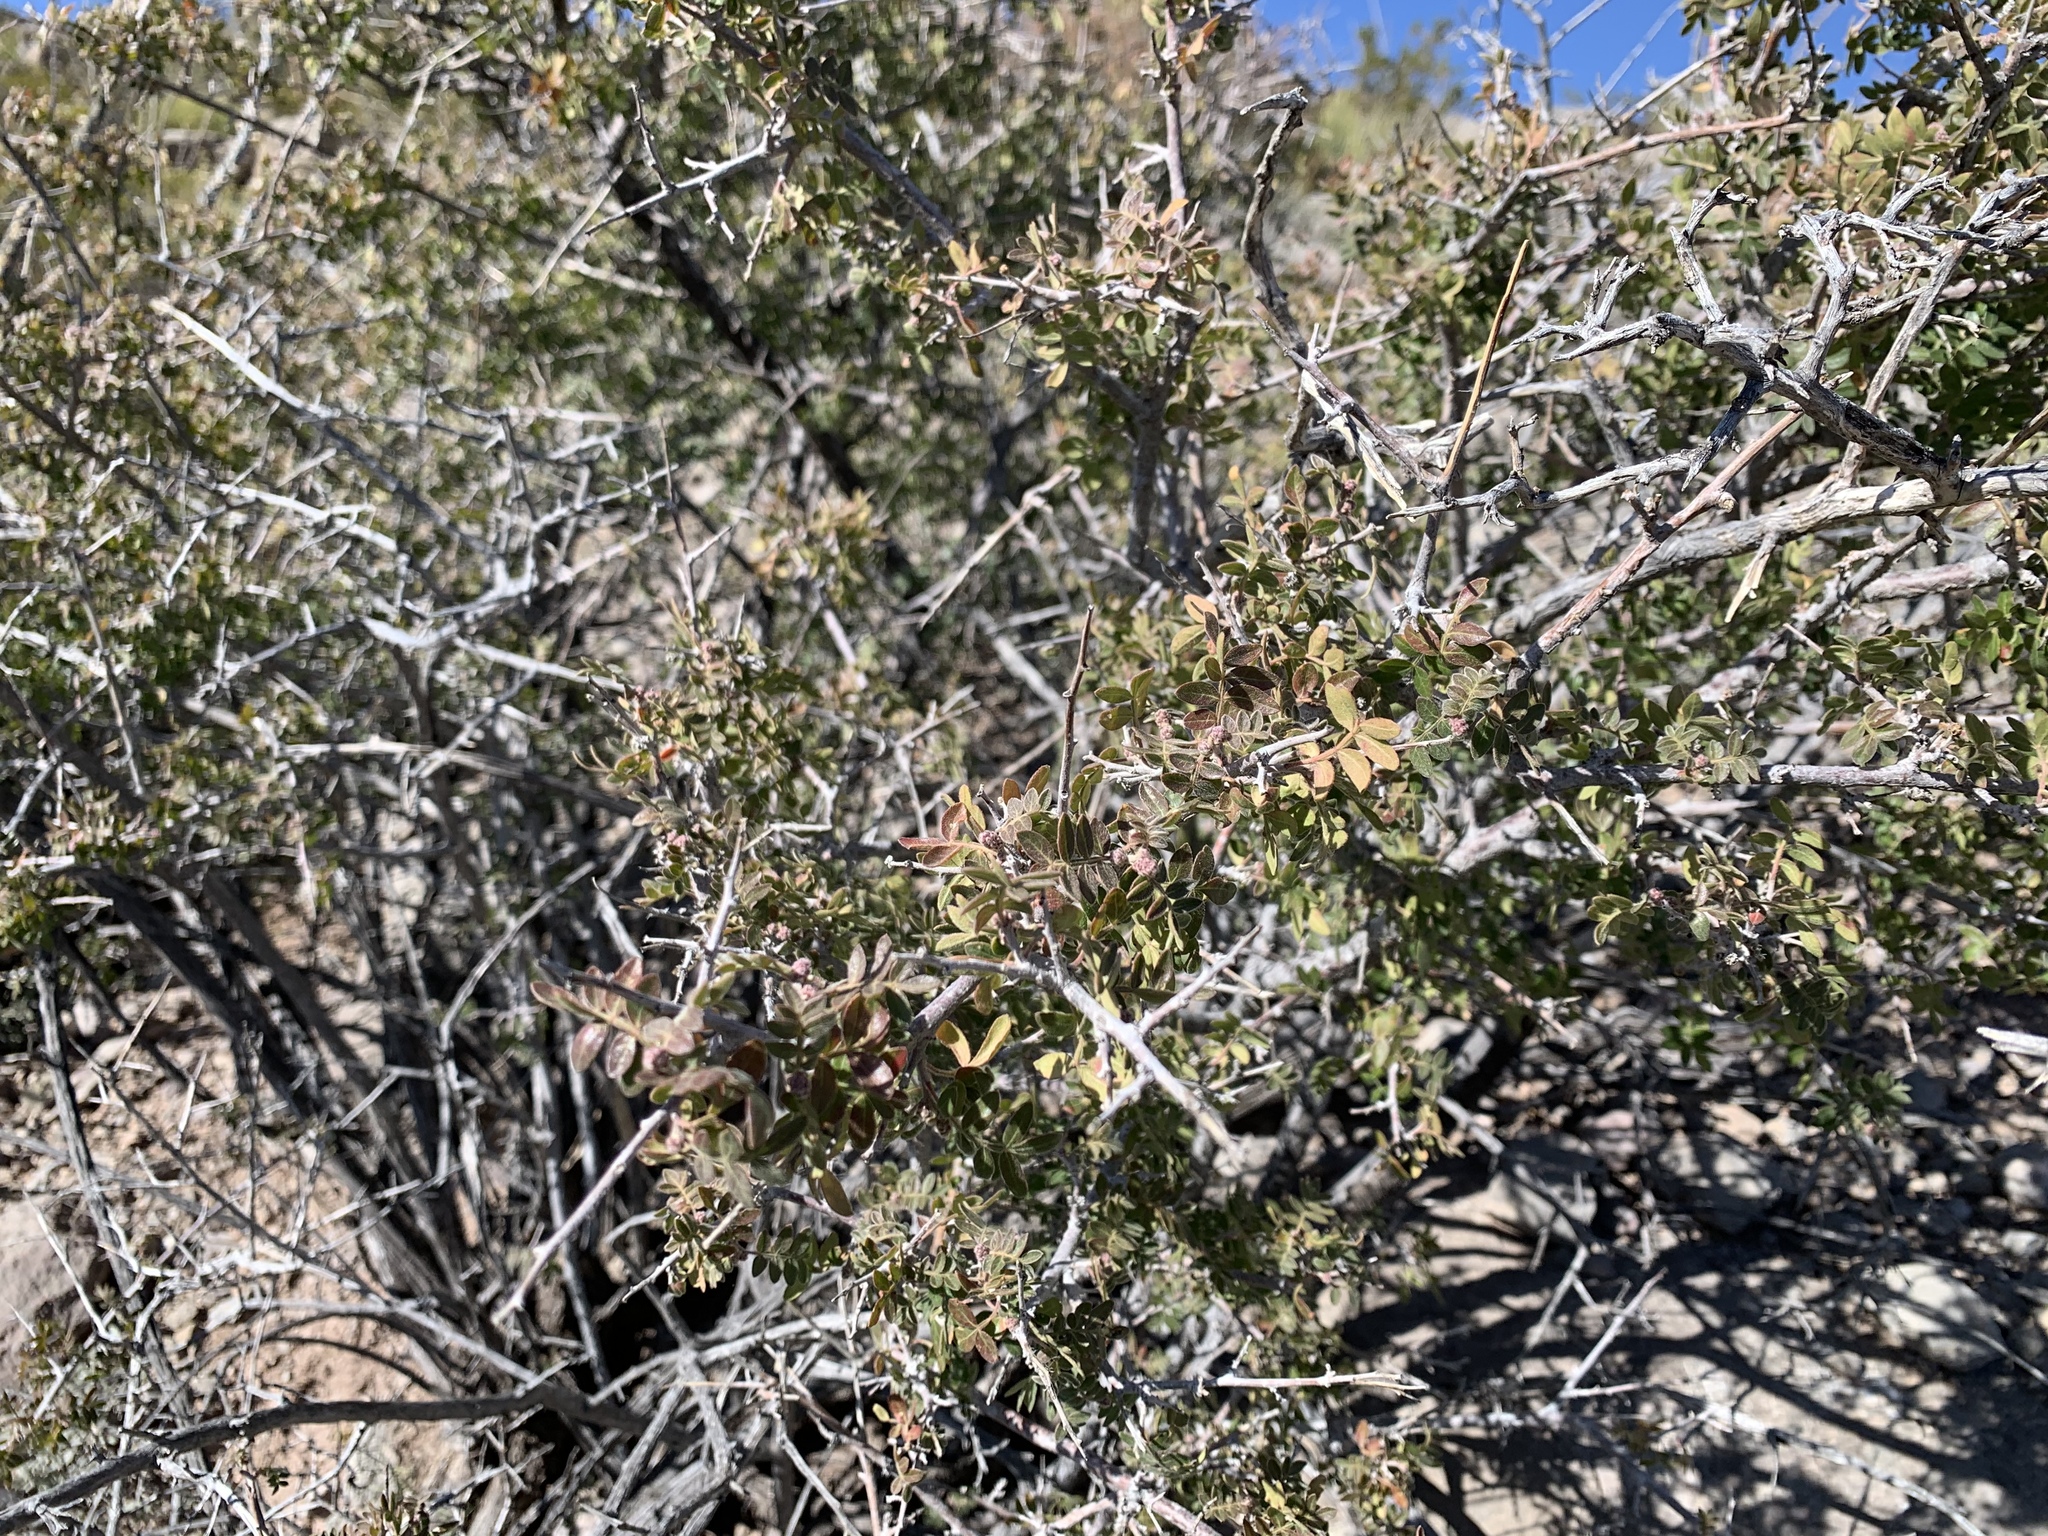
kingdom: Plantae
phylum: Tracheophyta
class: Magnoliopsida
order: Sapindales
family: Anacardiaceae
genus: Rhus
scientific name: Rhus microphylla
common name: Desert sumac
